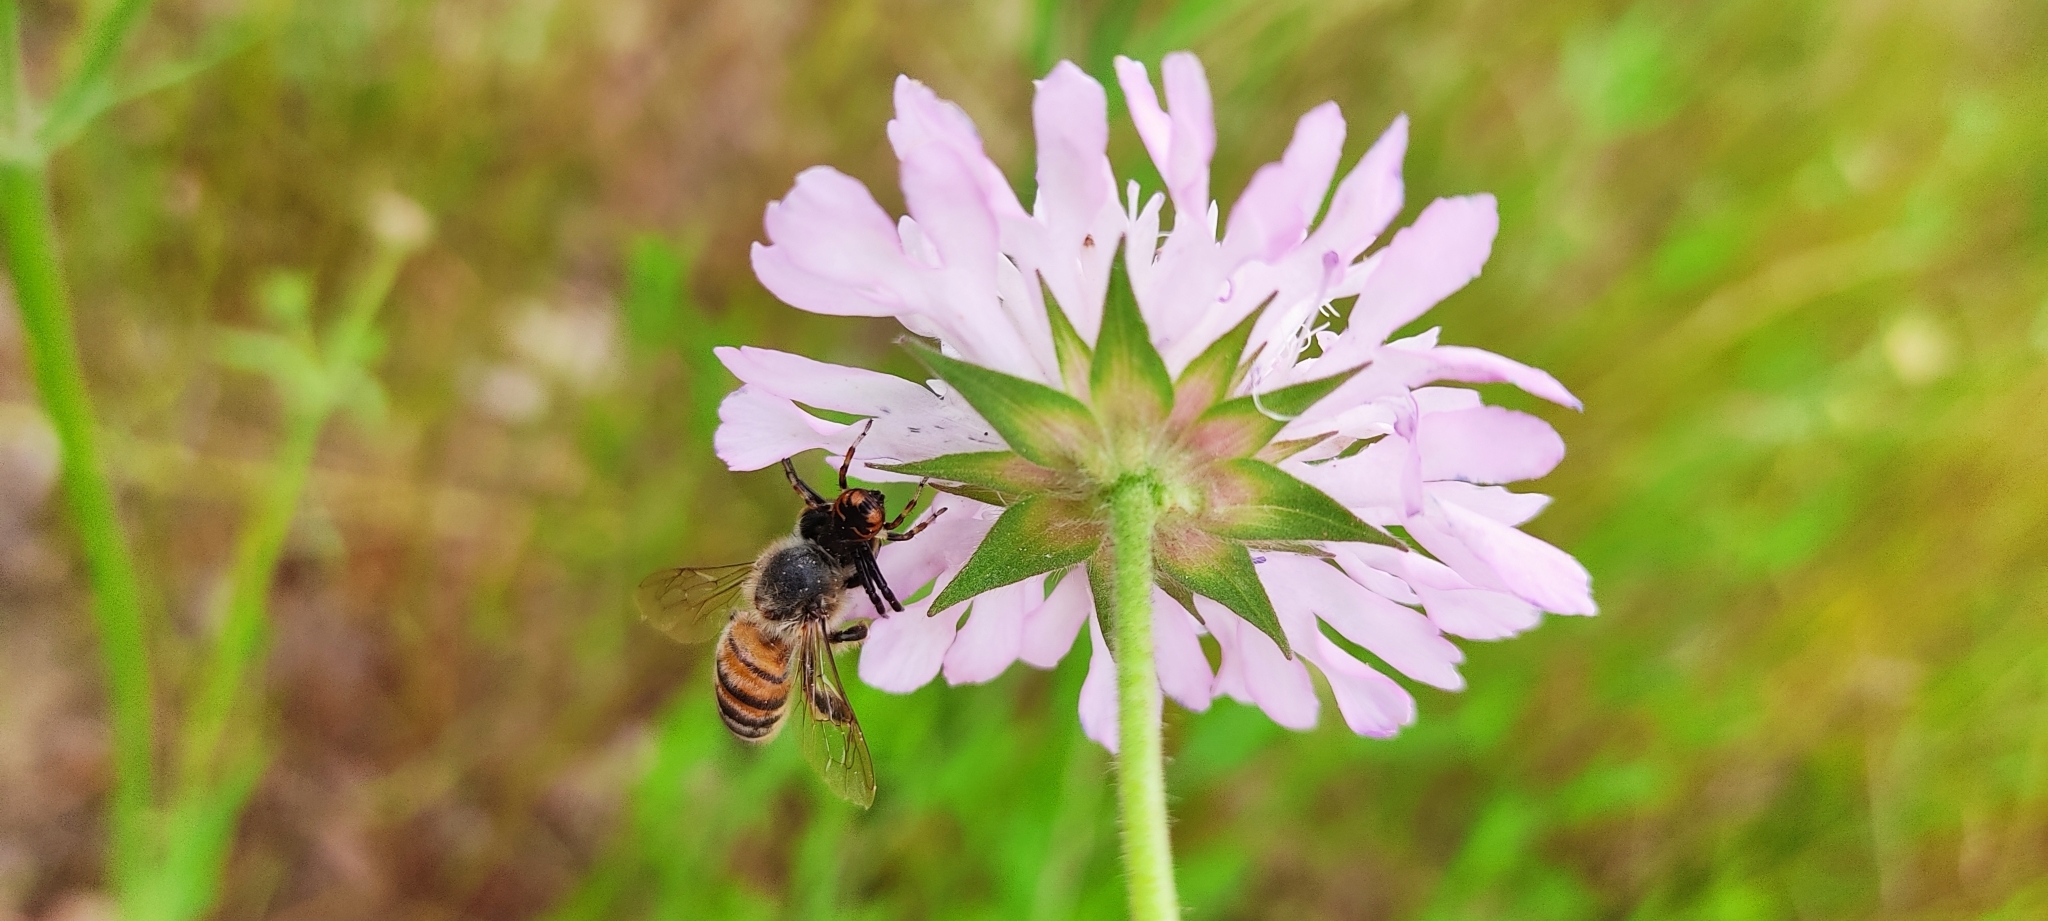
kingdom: Animalia
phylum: Arthropoda
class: Arachnida
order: Araneae
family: Thomisidae
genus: Synema
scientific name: Synema globosum
